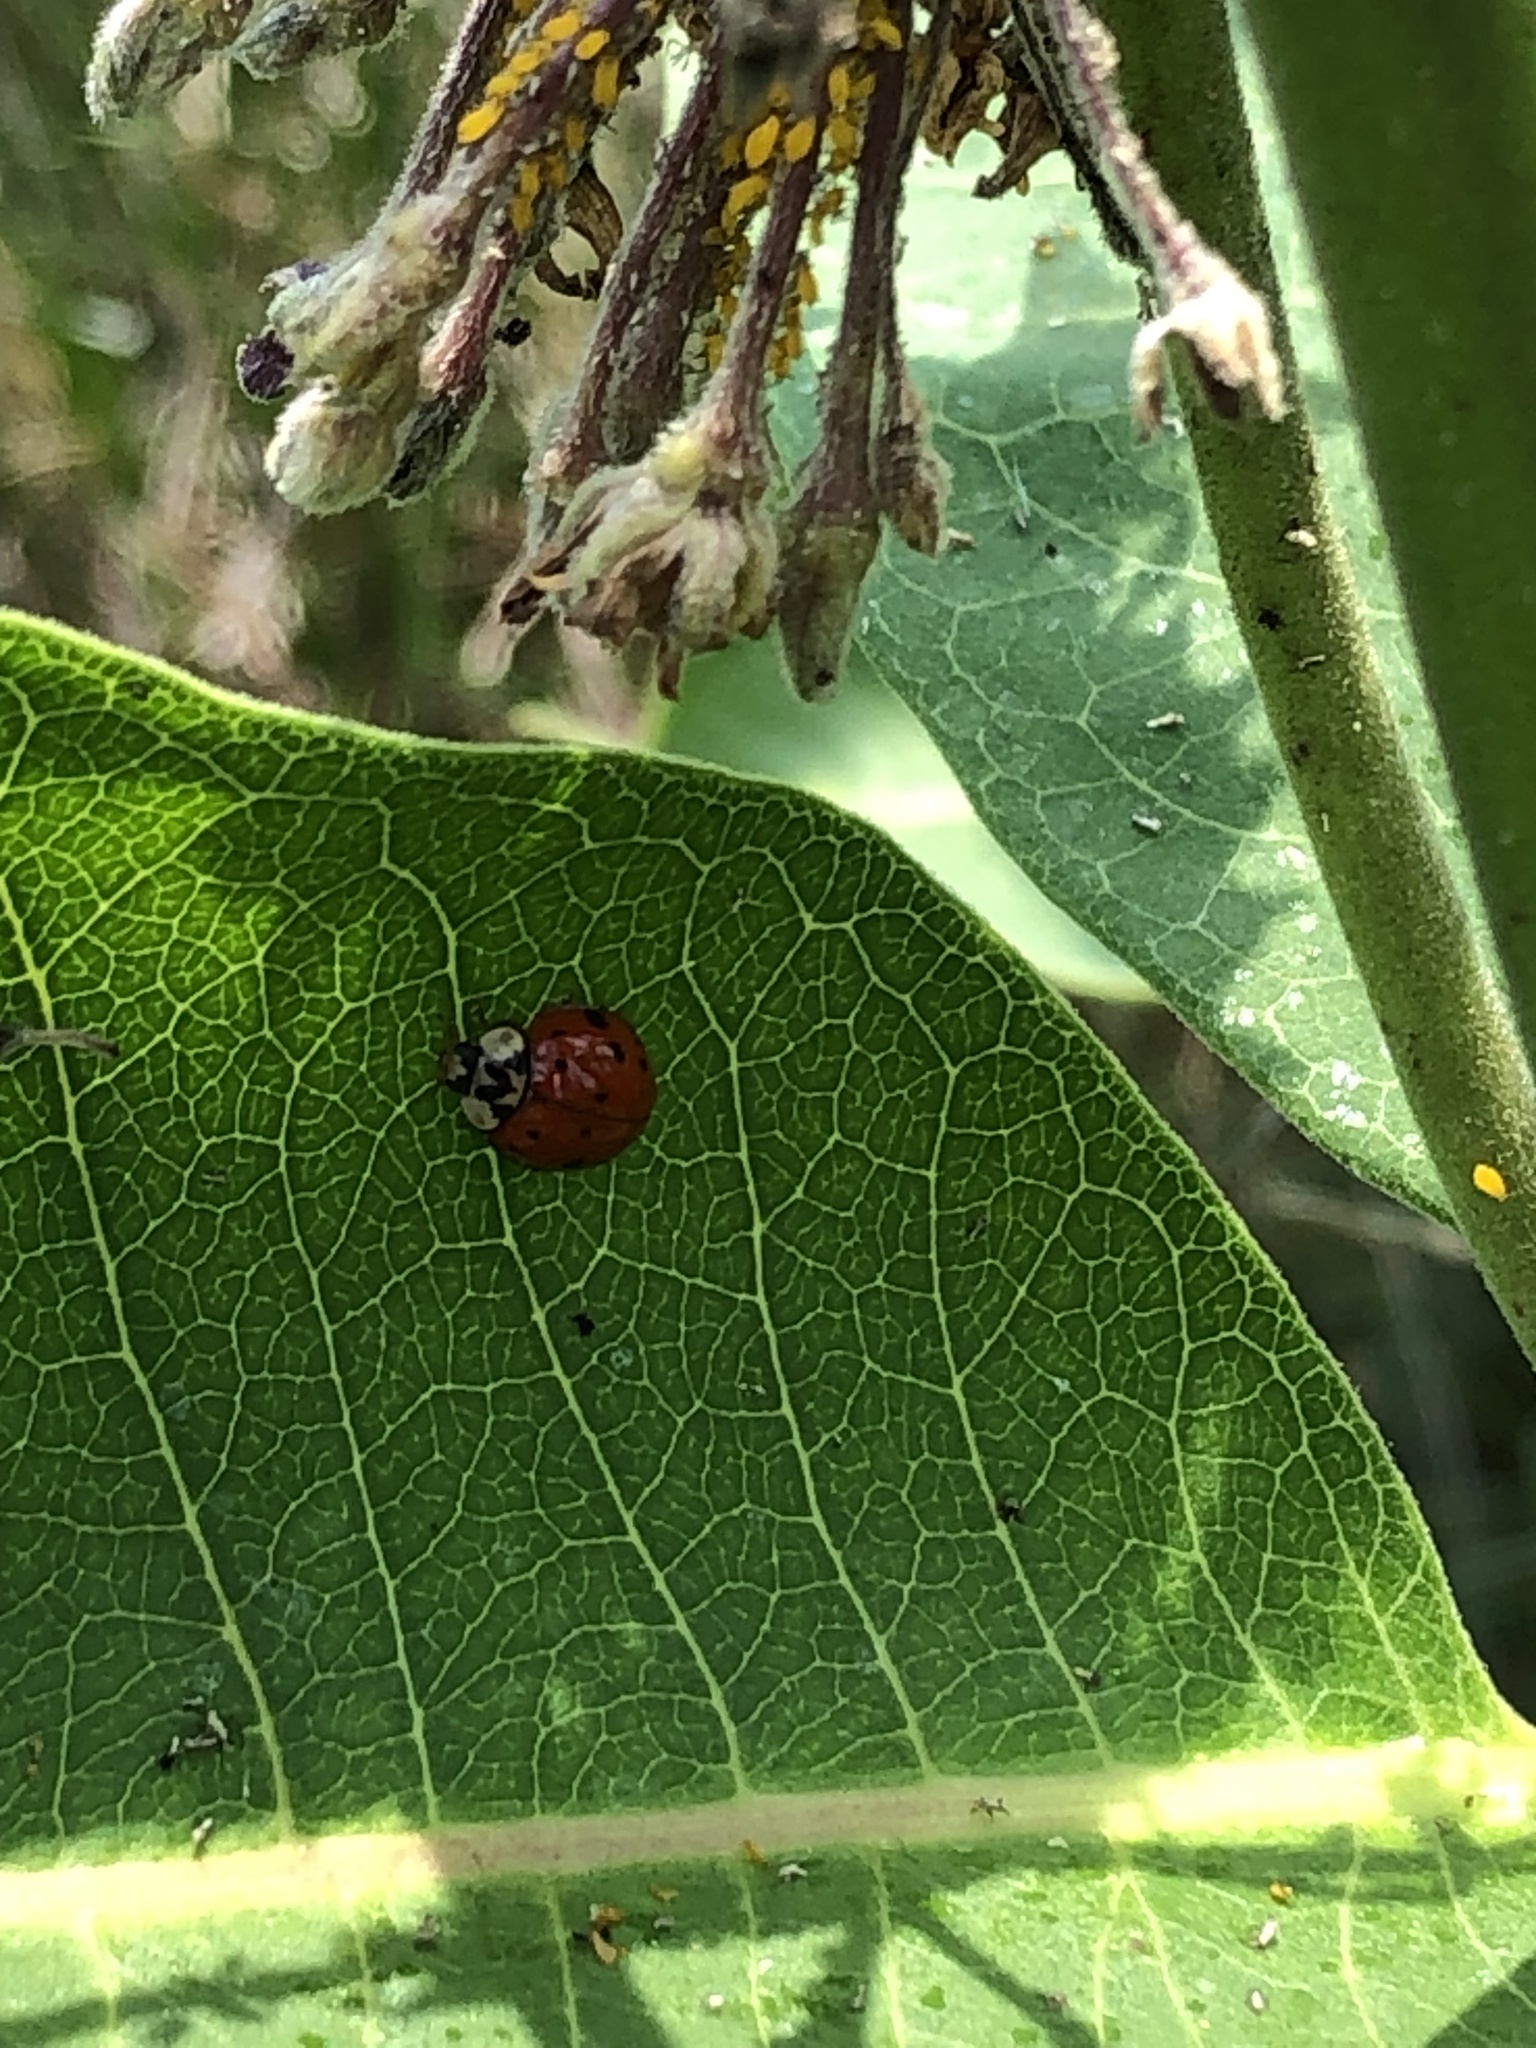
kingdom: Animalia
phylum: Arthropoda
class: Insecta
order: Coleoptera
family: Coccinellidae
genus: Harmonia
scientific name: Harmonia axyridis
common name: Harlequin ladybird
